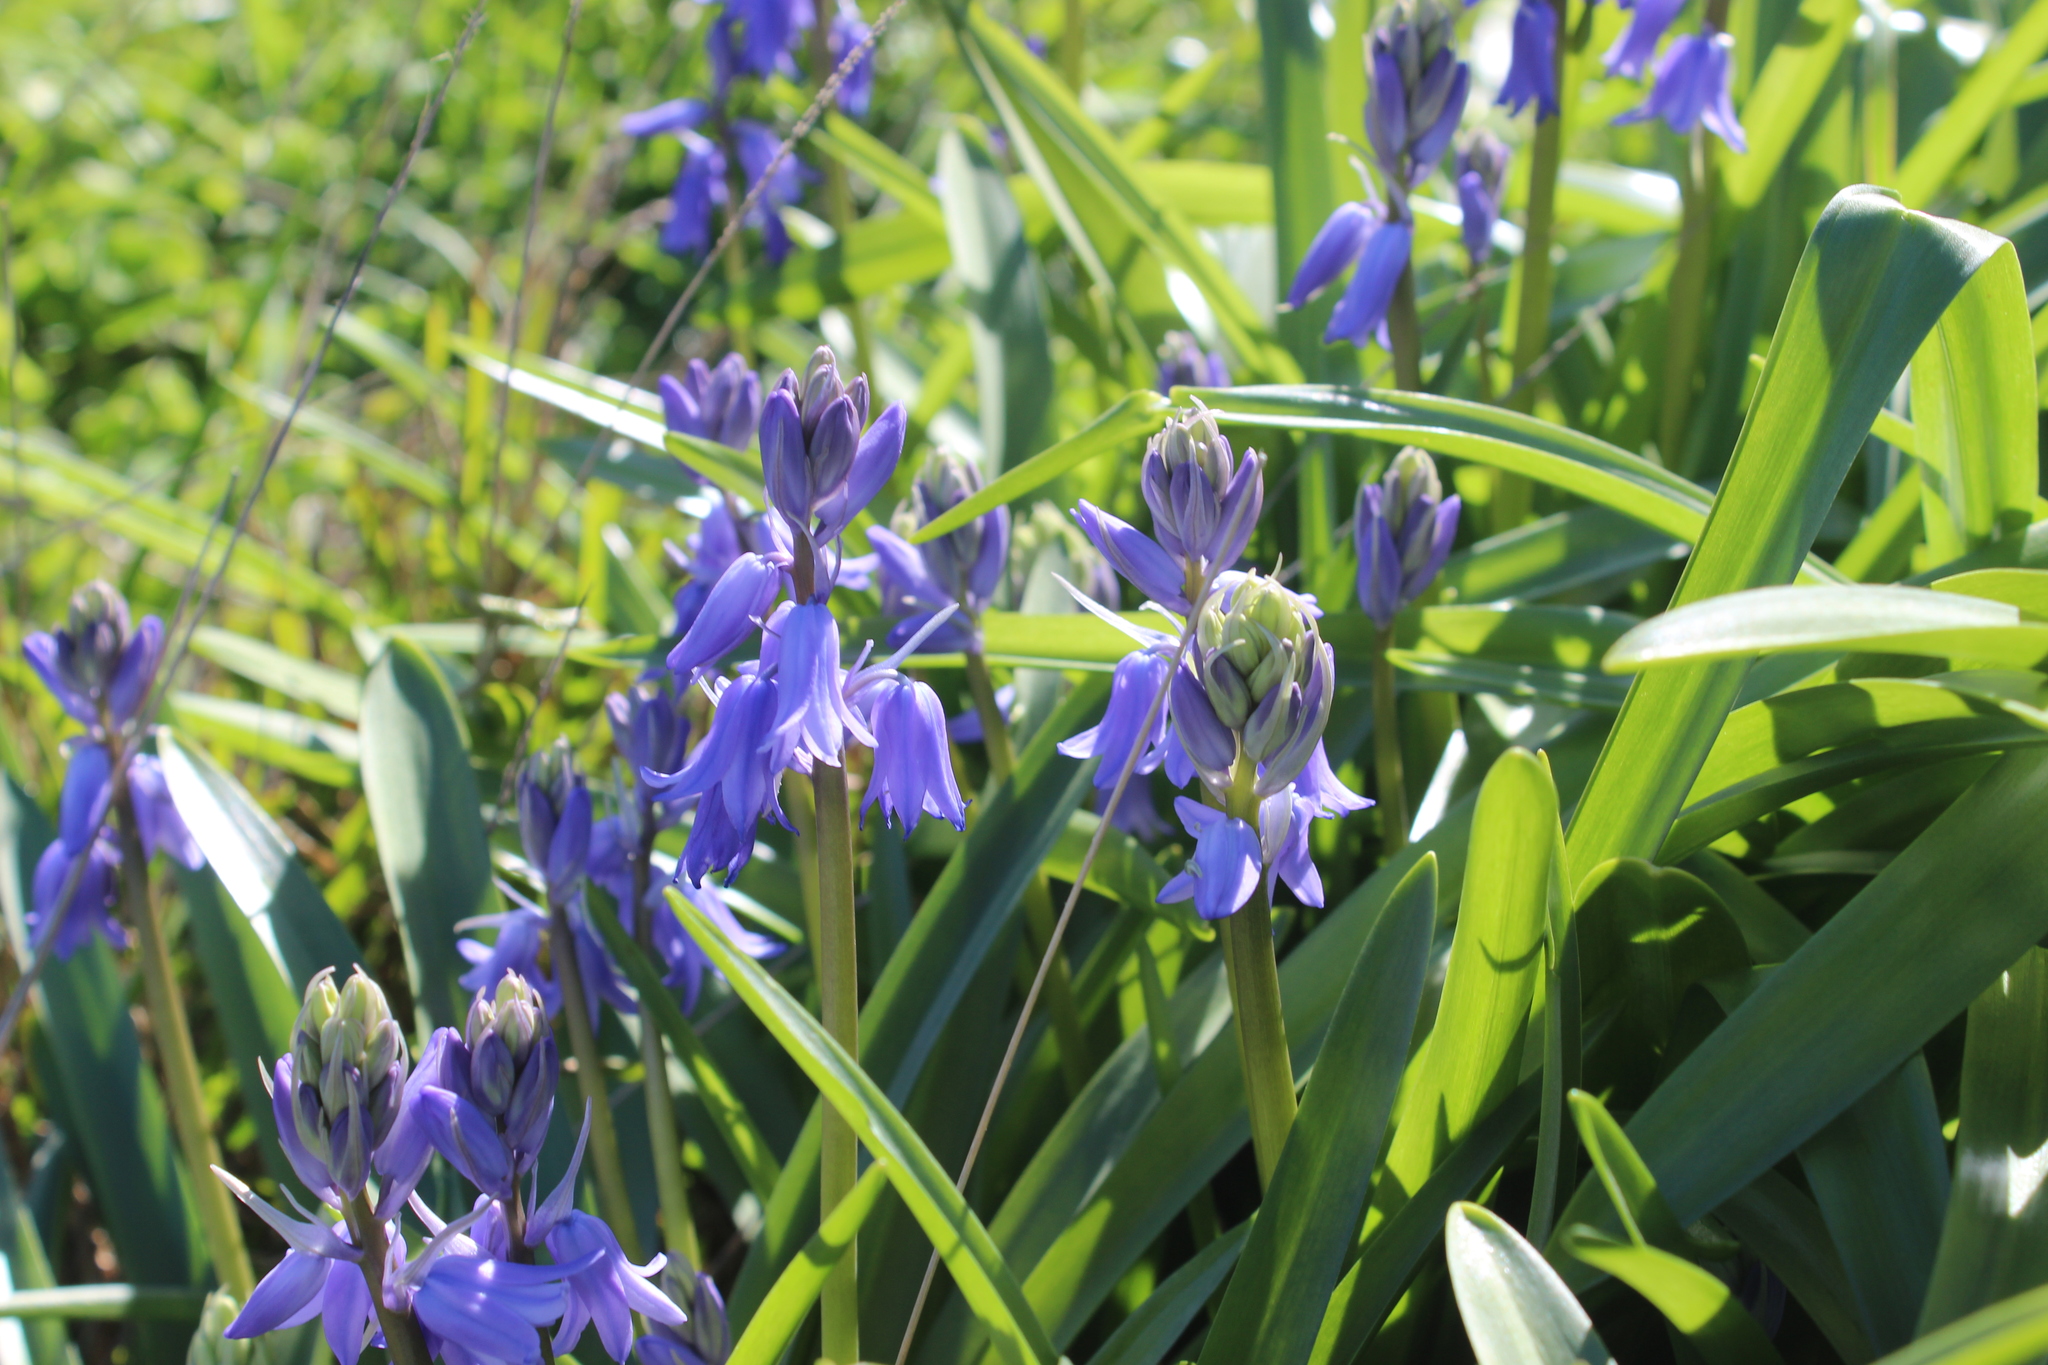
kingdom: Plantae
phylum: Tracheophyta
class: Liliopsida
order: Asparagales
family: Asparagaceae
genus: Hyacinthoides
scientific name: Hyacinthoides massartiana
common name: Hyacinthoides
